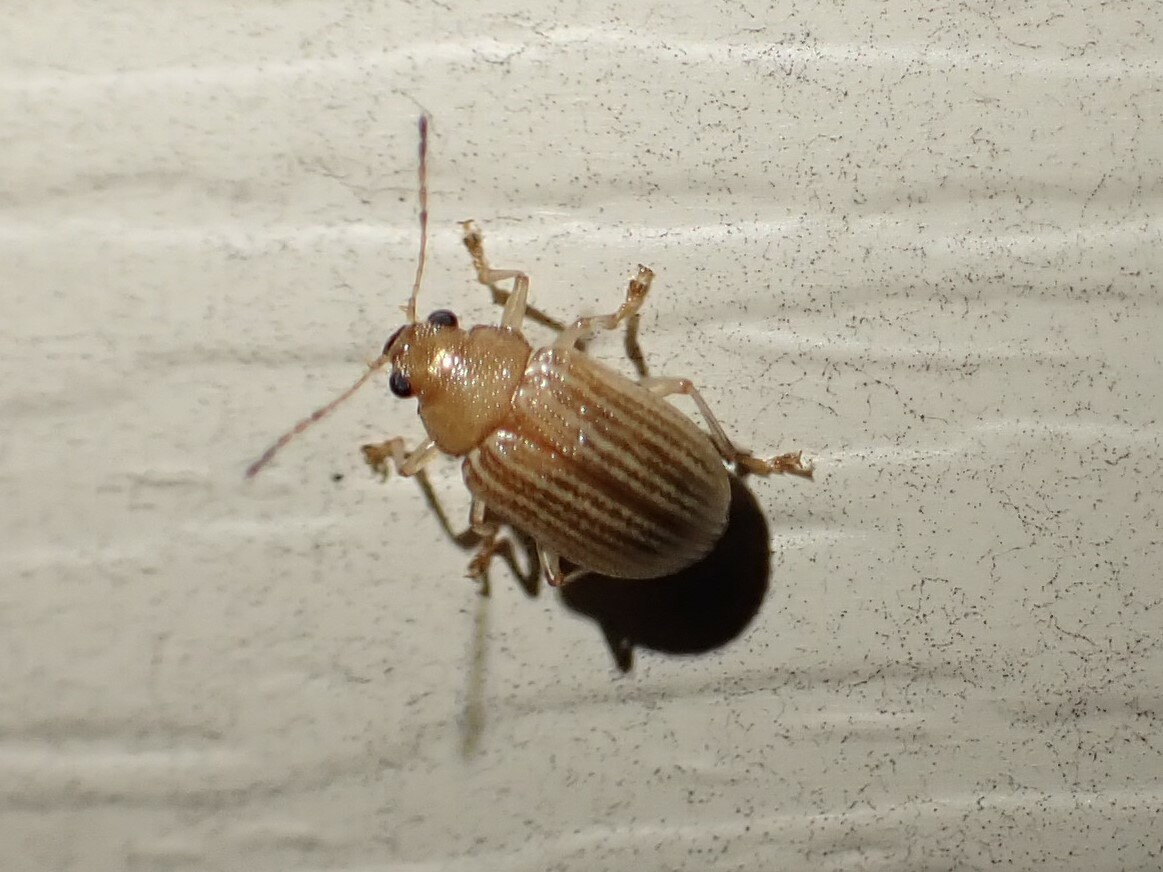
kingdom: Animalia
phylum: Arthropoda
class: Insecta
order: Coleoptera
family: Chrysomelidae
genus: Colaspis
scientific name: Colaspis brunnea
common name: Grape colaspis
